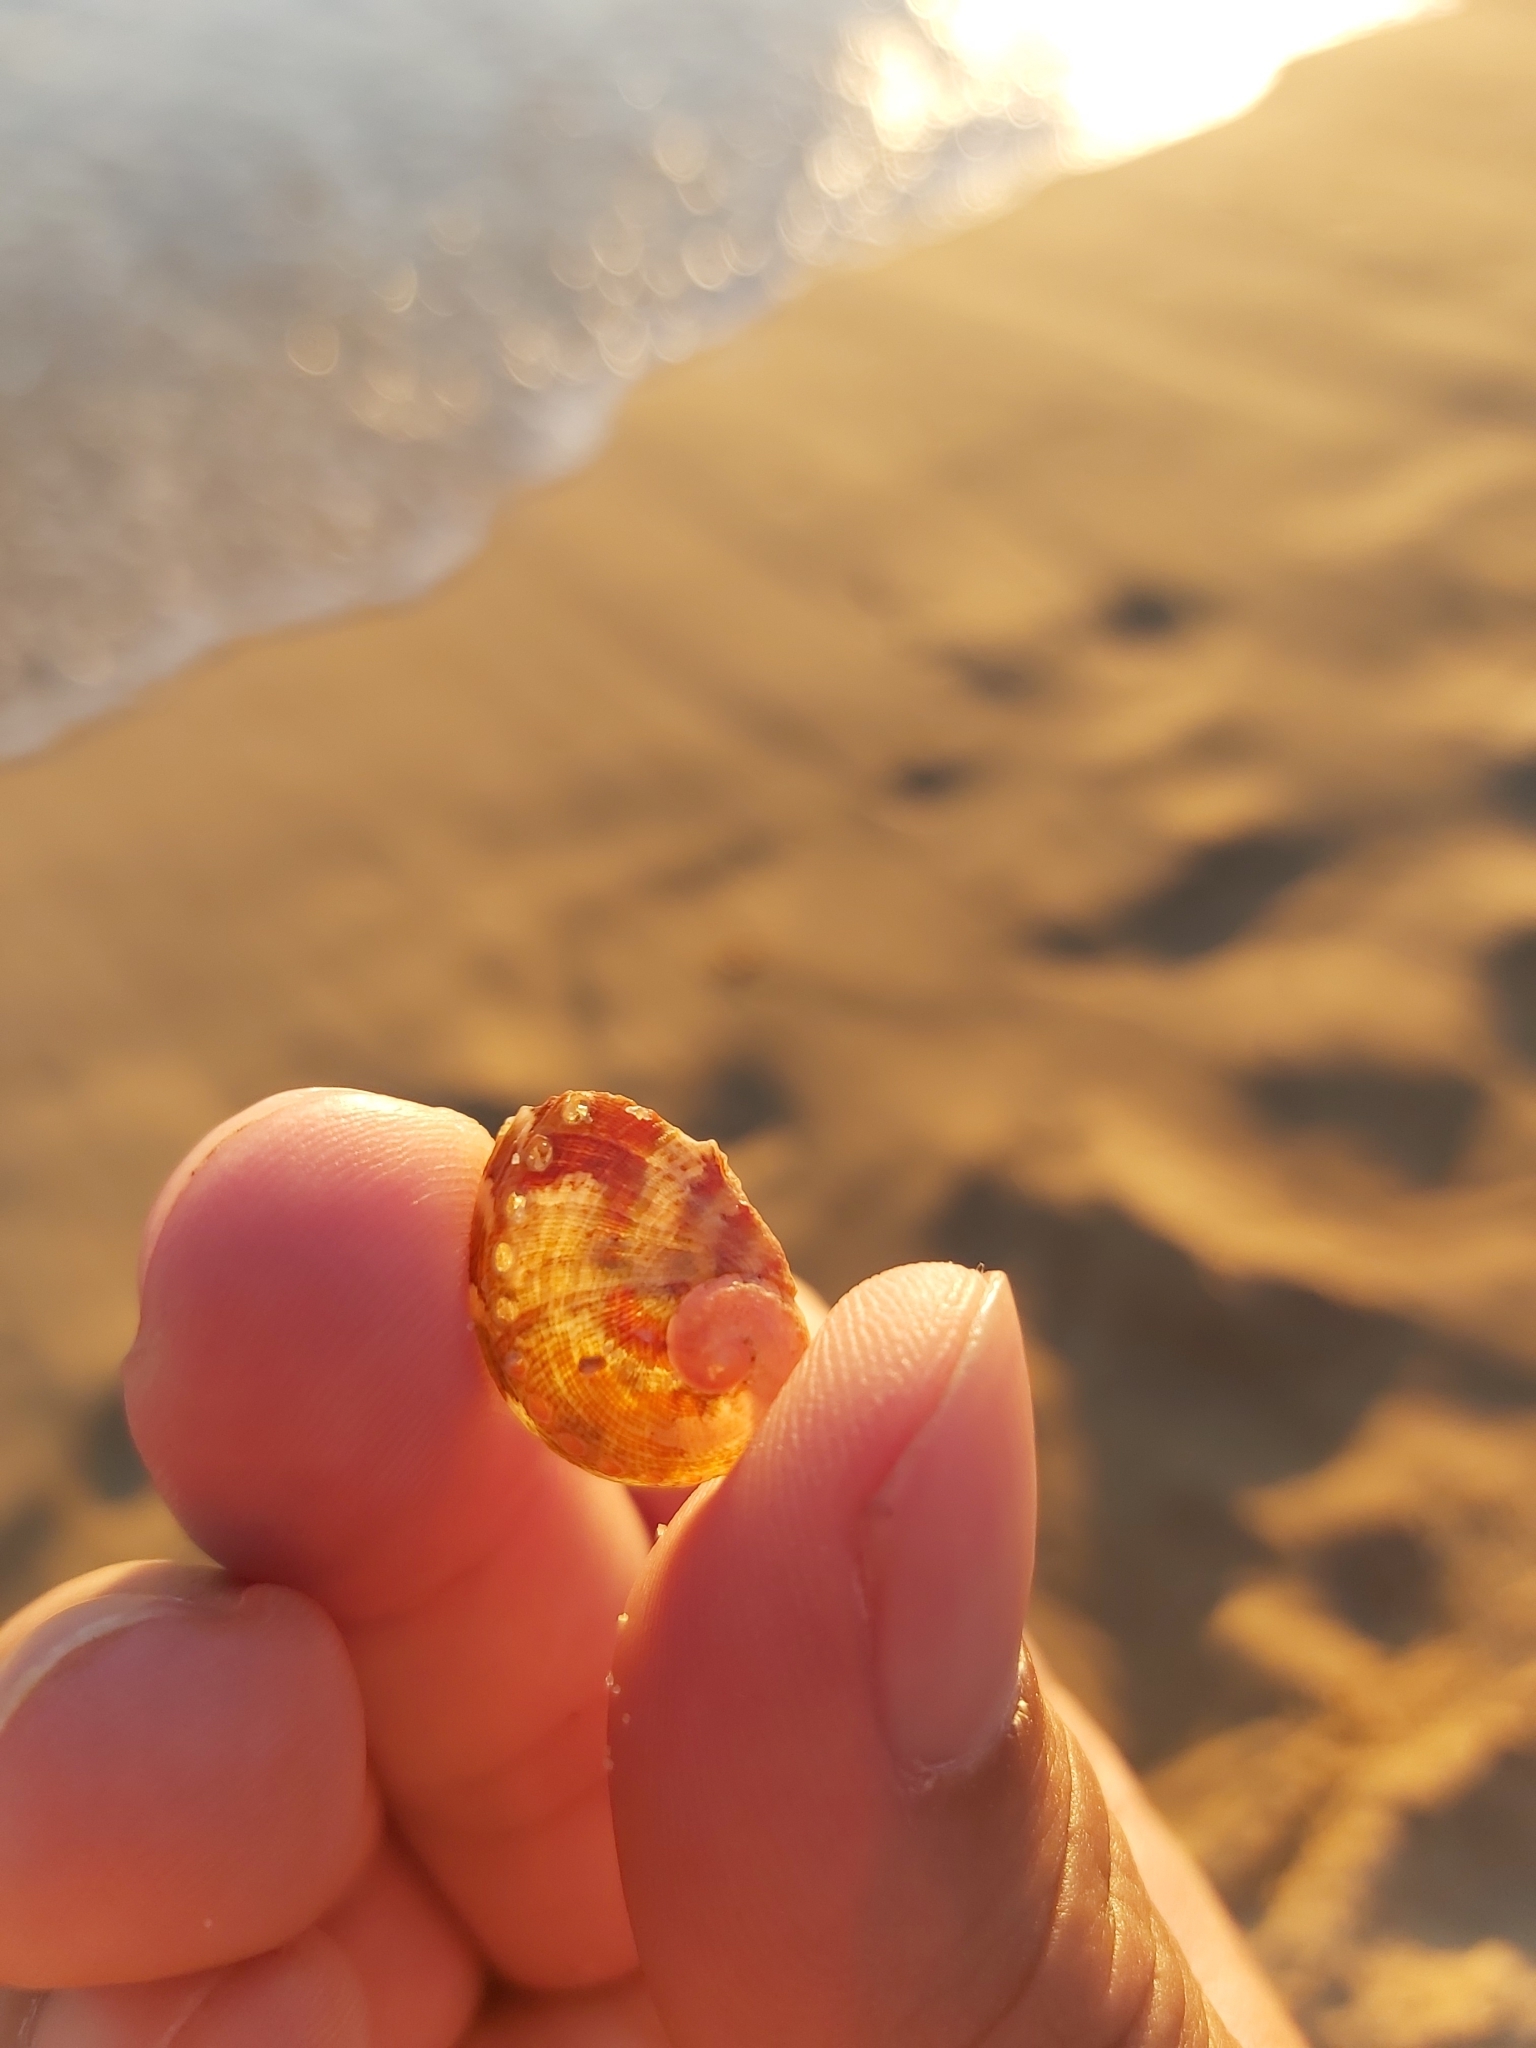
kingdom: Animalia
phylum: Mollusca
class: Gastropoda
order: Lepetellida
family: Haliotidae
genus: Haliotis
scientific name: Haliotis coccoradiata
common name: Reddish-rayed abalone
